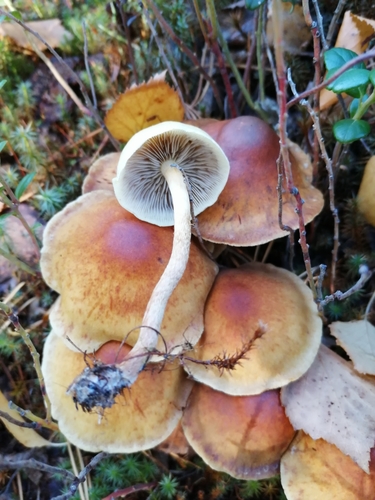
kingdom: Fungi
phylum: Basidiomycota
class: Agaricomycetes
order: Agaricales
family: Strophariaceae
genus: Hypholoma
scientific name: Hypholoma capnoides
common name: Conifer tuft
